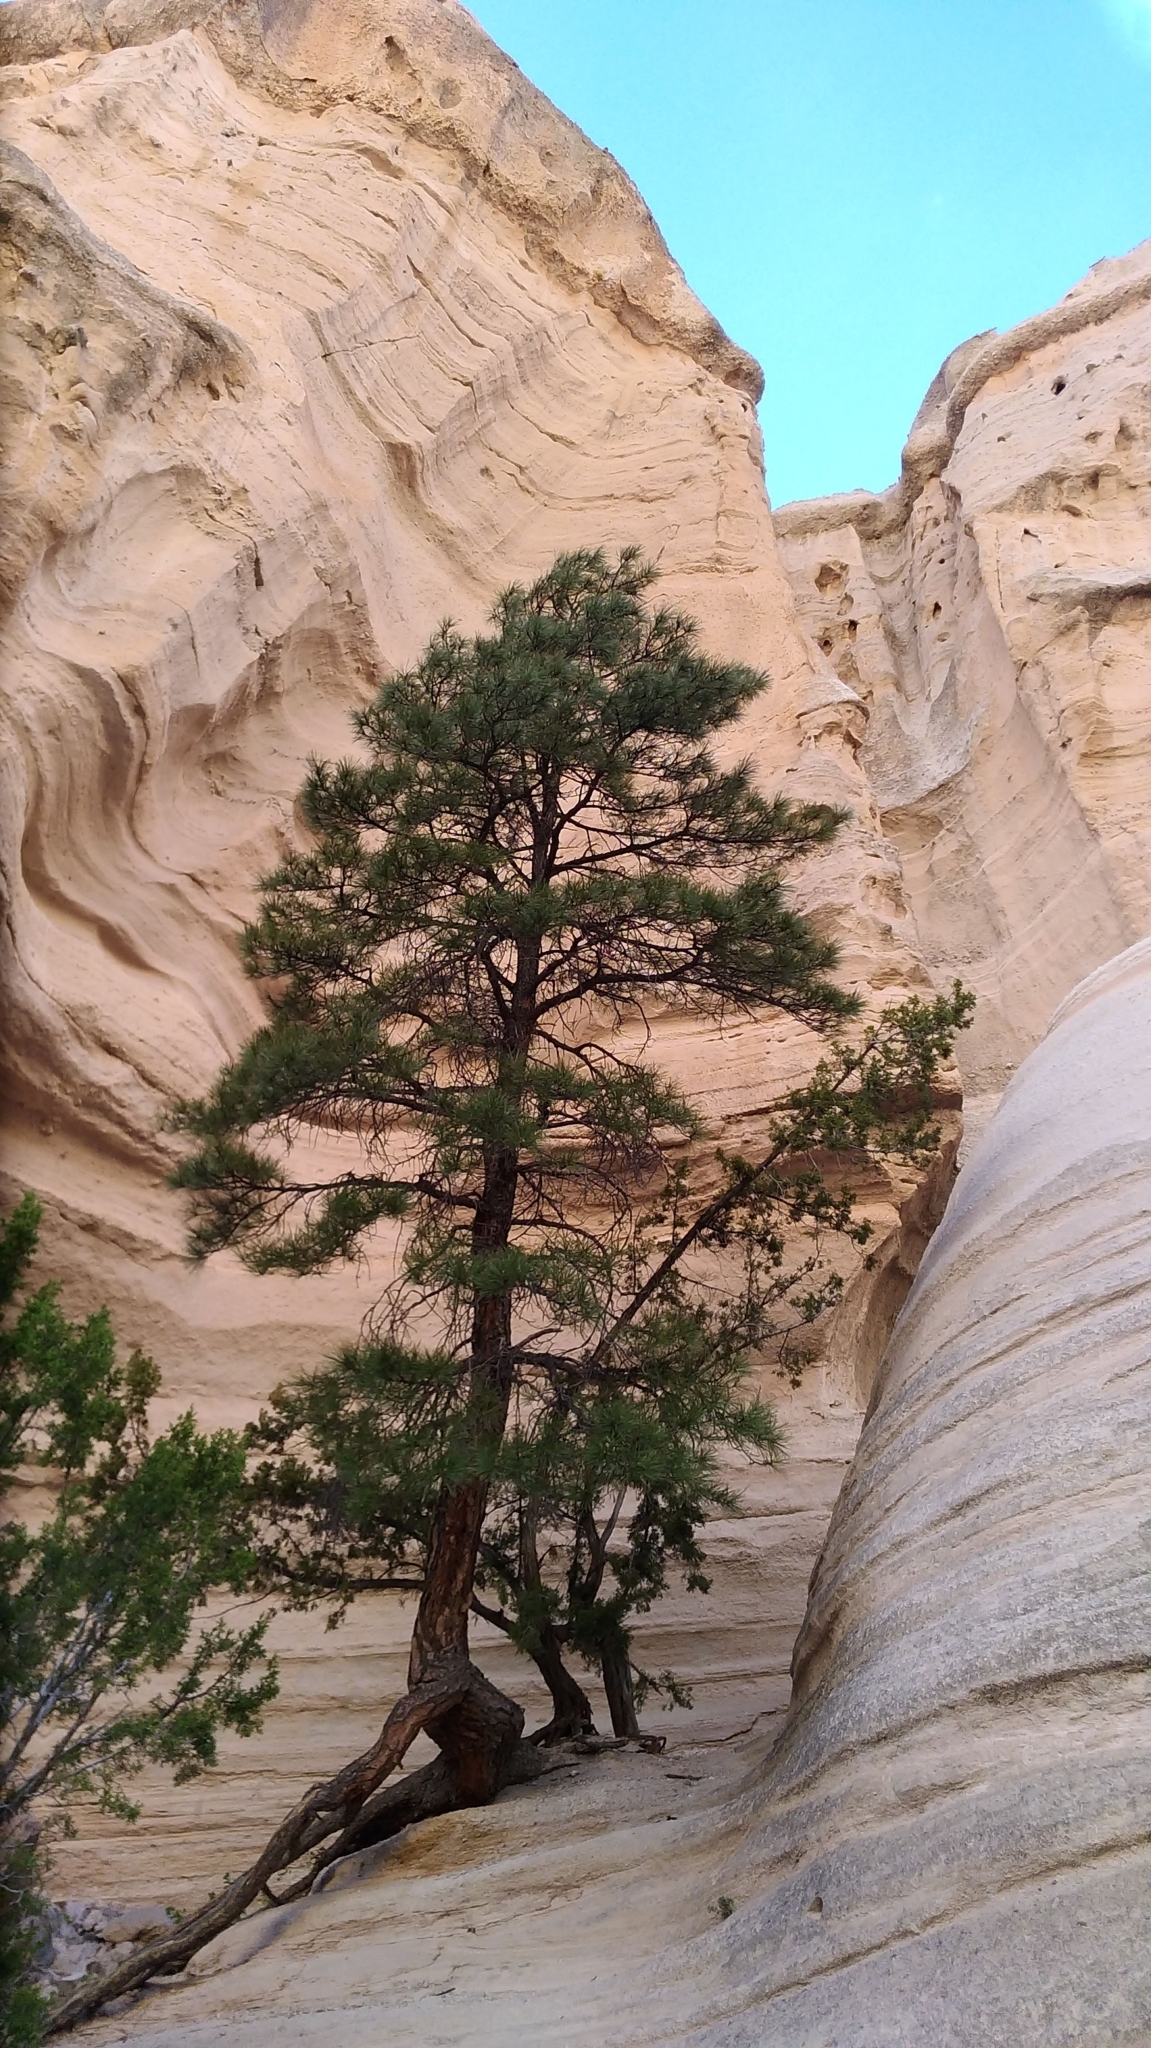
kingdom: Plantae
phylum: Tracheophyta
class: Pinopsida
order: Pinales
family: Pinaceae
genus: Pinus
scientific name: Pinus ponderosa
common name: Western yellow-pine
